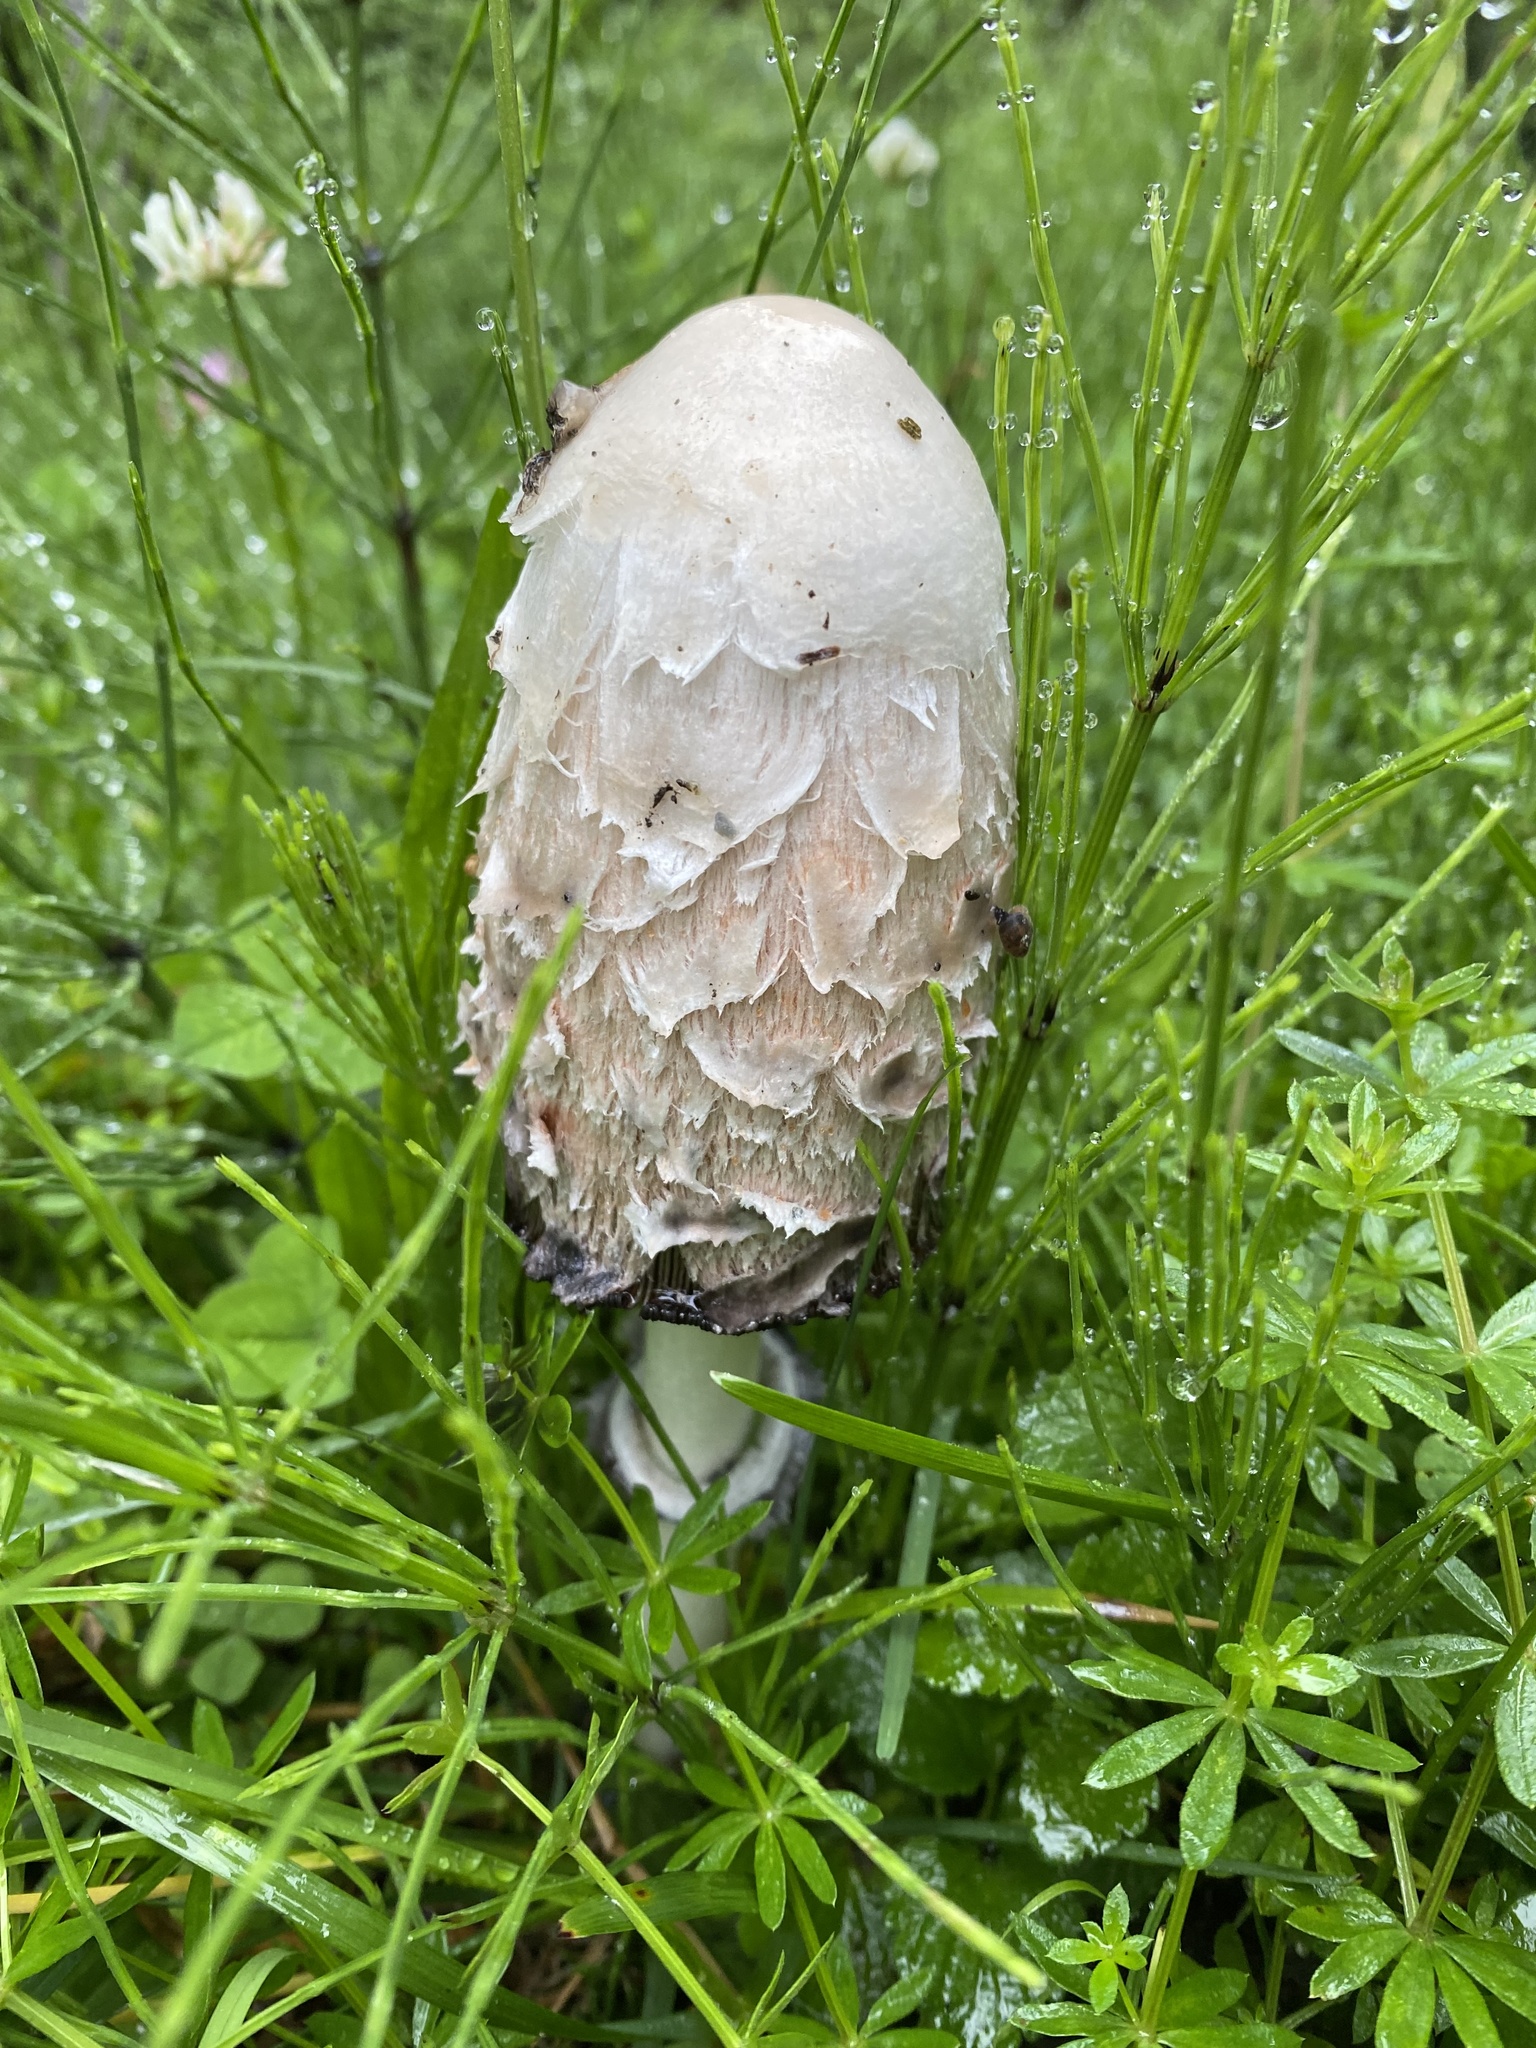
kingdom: Fungi
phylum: Basidiomycota
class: Agaricomycetes
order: Agaricales
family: Agaricaceae
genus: Coprinus
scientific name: Coprinus comatus
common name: Lawyer's wig
